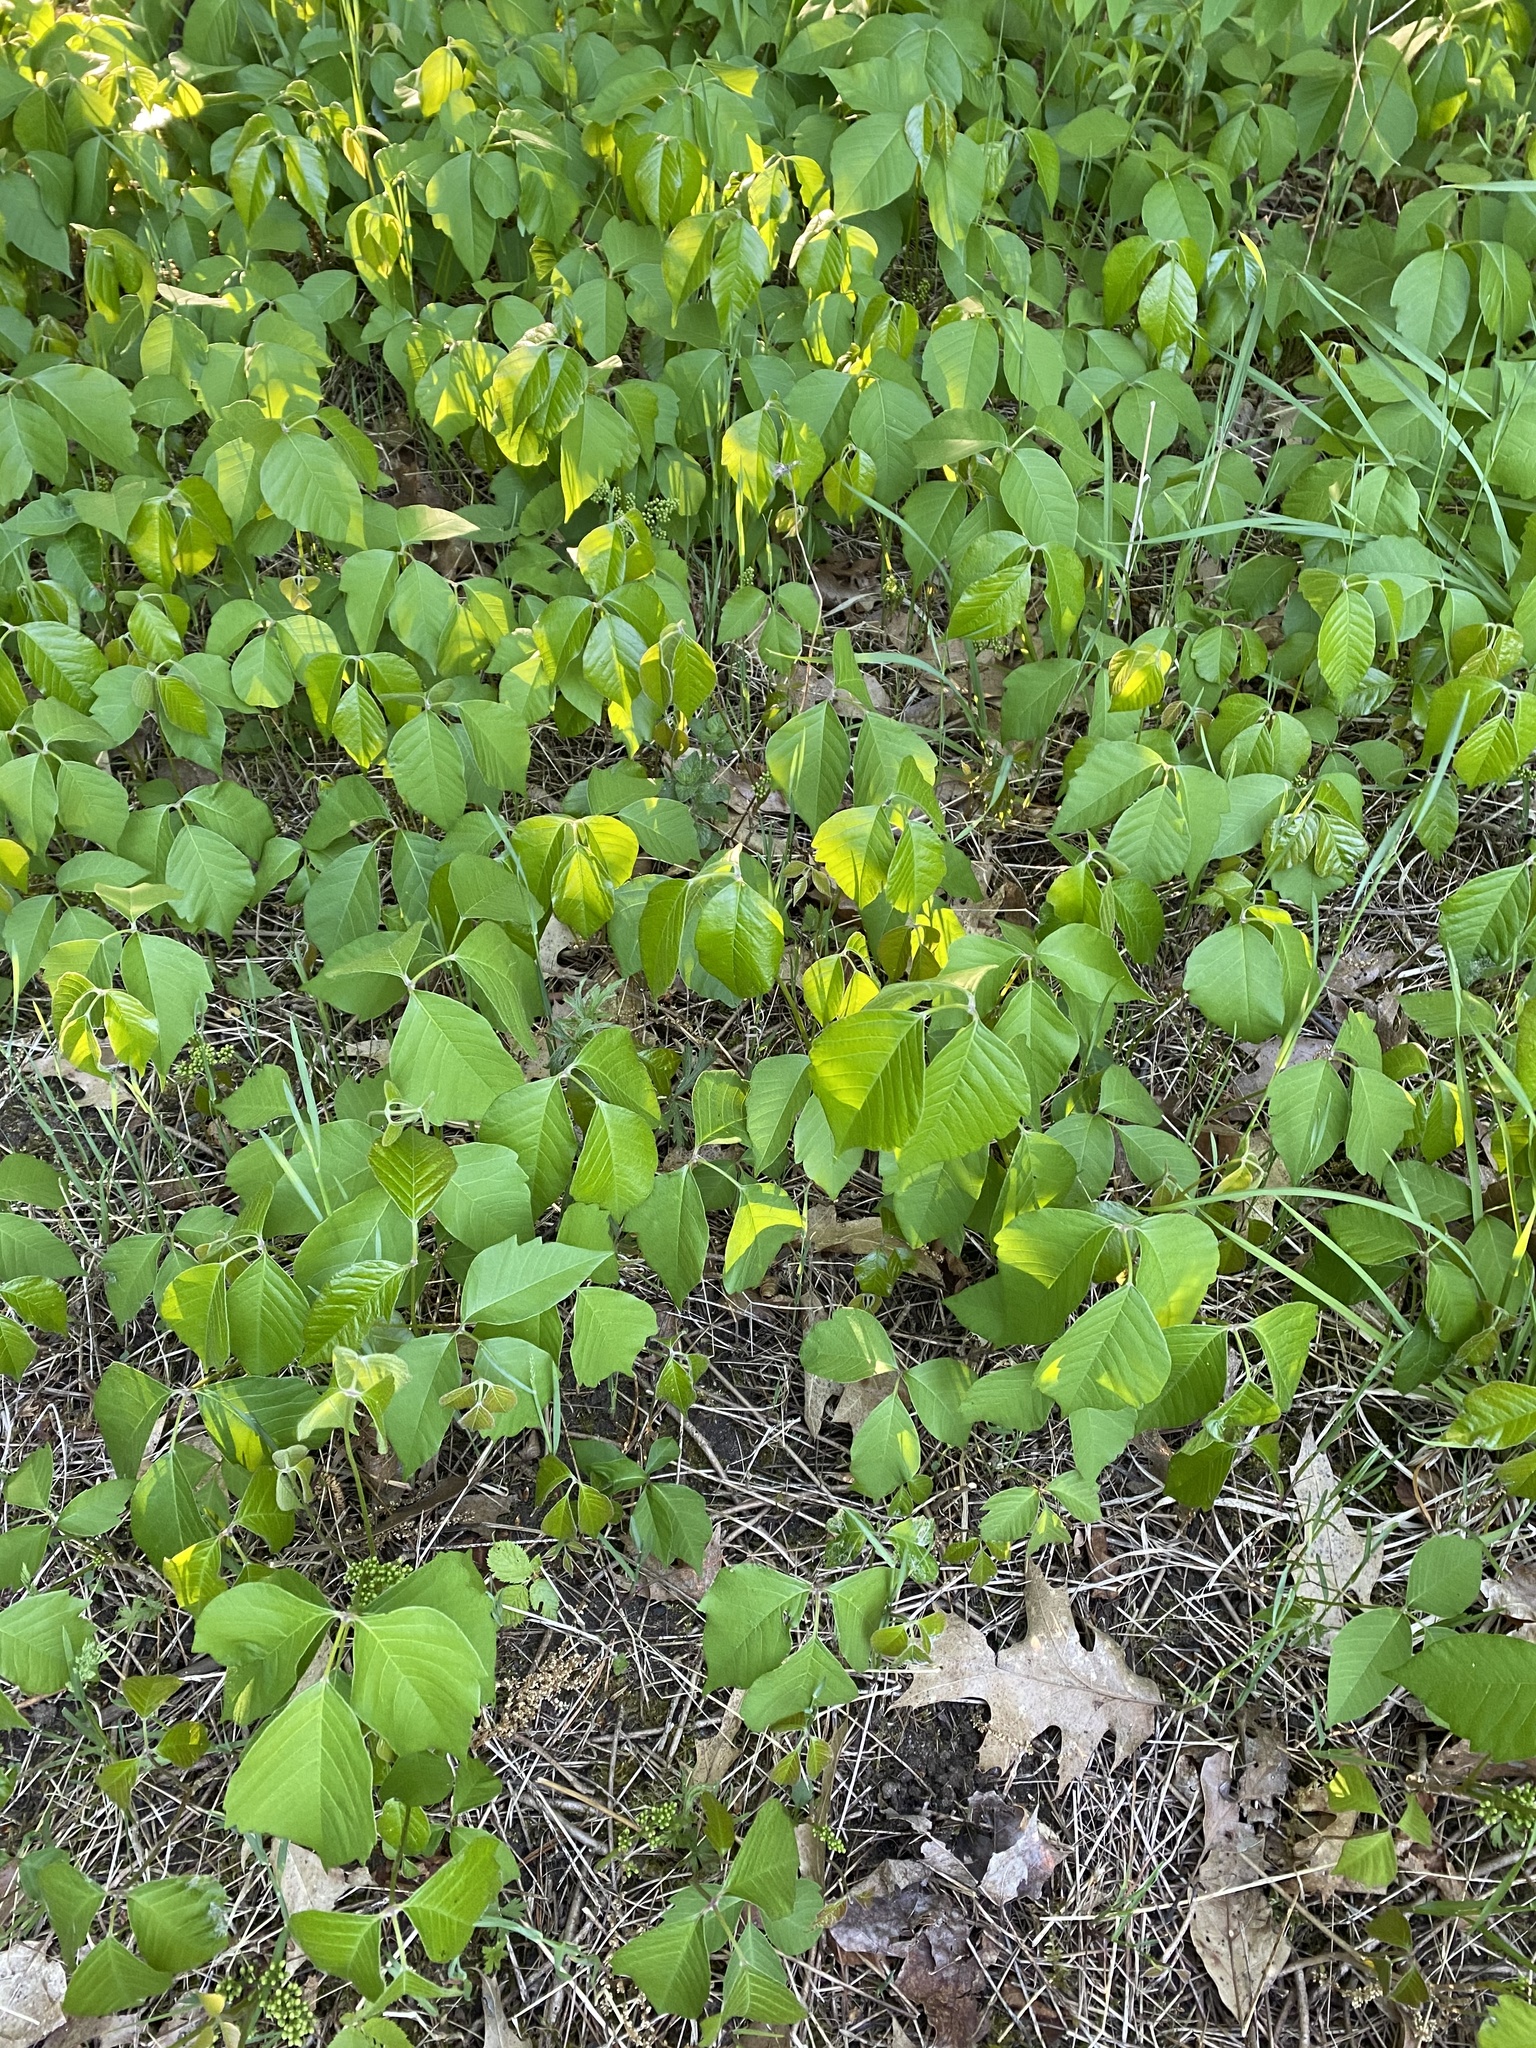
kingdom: Plantae
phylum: Tracheophyta
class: Magnoliopsida
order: Sapindales
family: Anacardiaceae
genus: Toxicodendron
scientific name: Toxicodendron rydbergii
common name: Rydberg's poison-ivy
